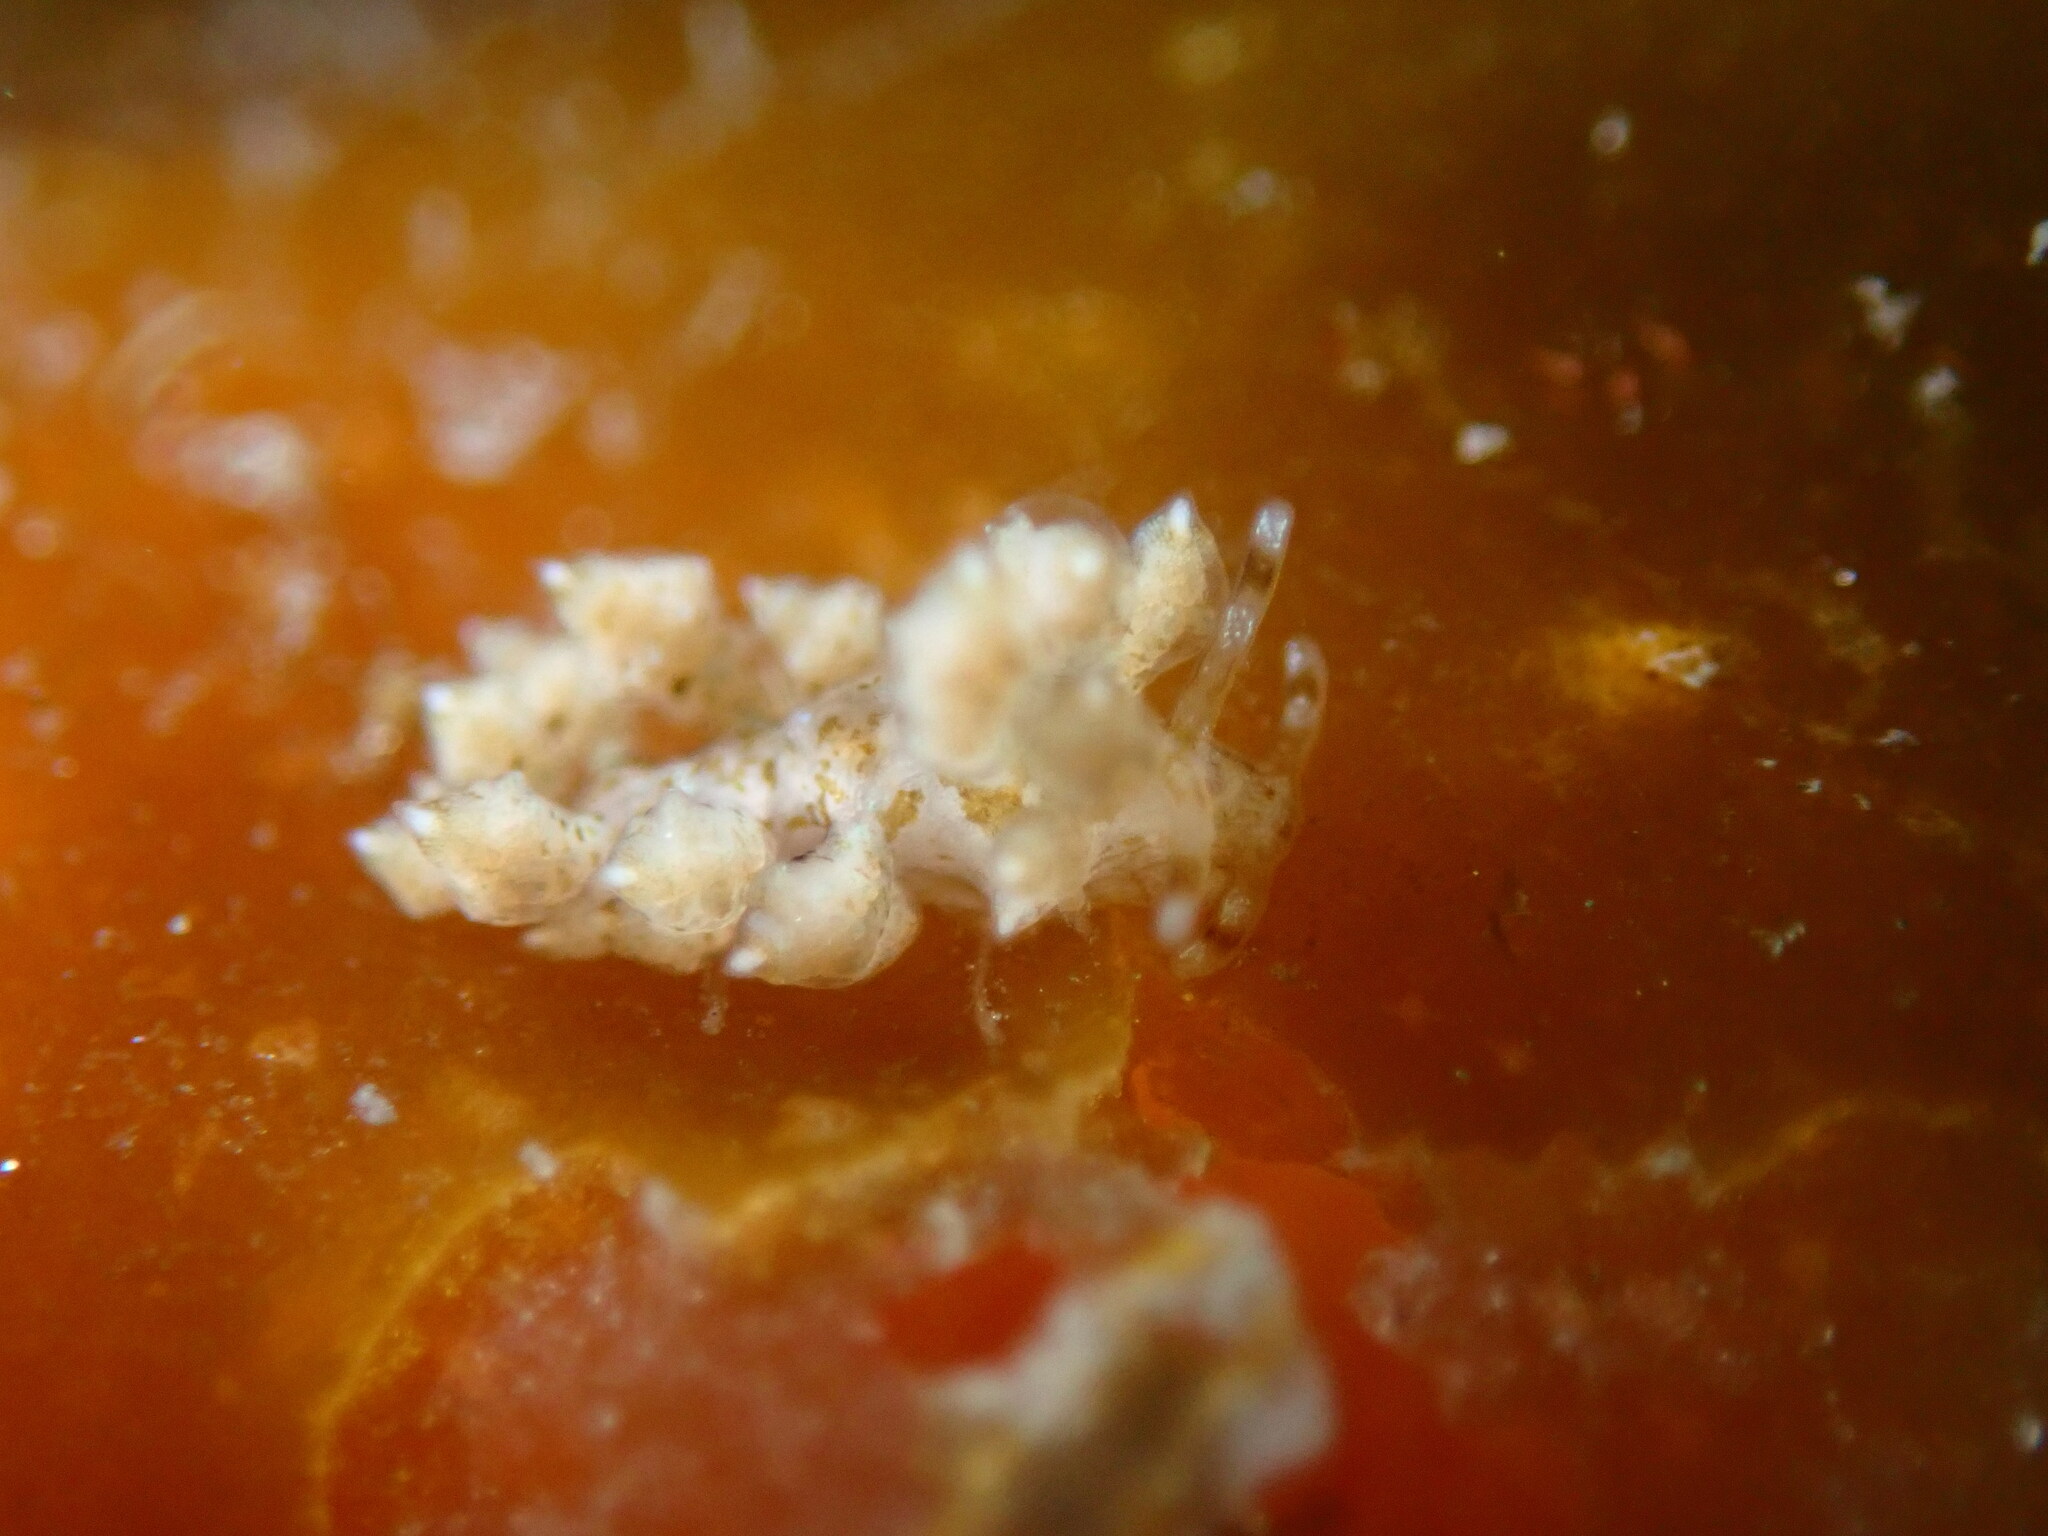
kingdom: Animalia
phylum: Mollusca
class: Gastropoda
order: Nudibranchia
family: Eubranchidae
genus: Eubranchus
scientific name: Eubranchus rustyus
